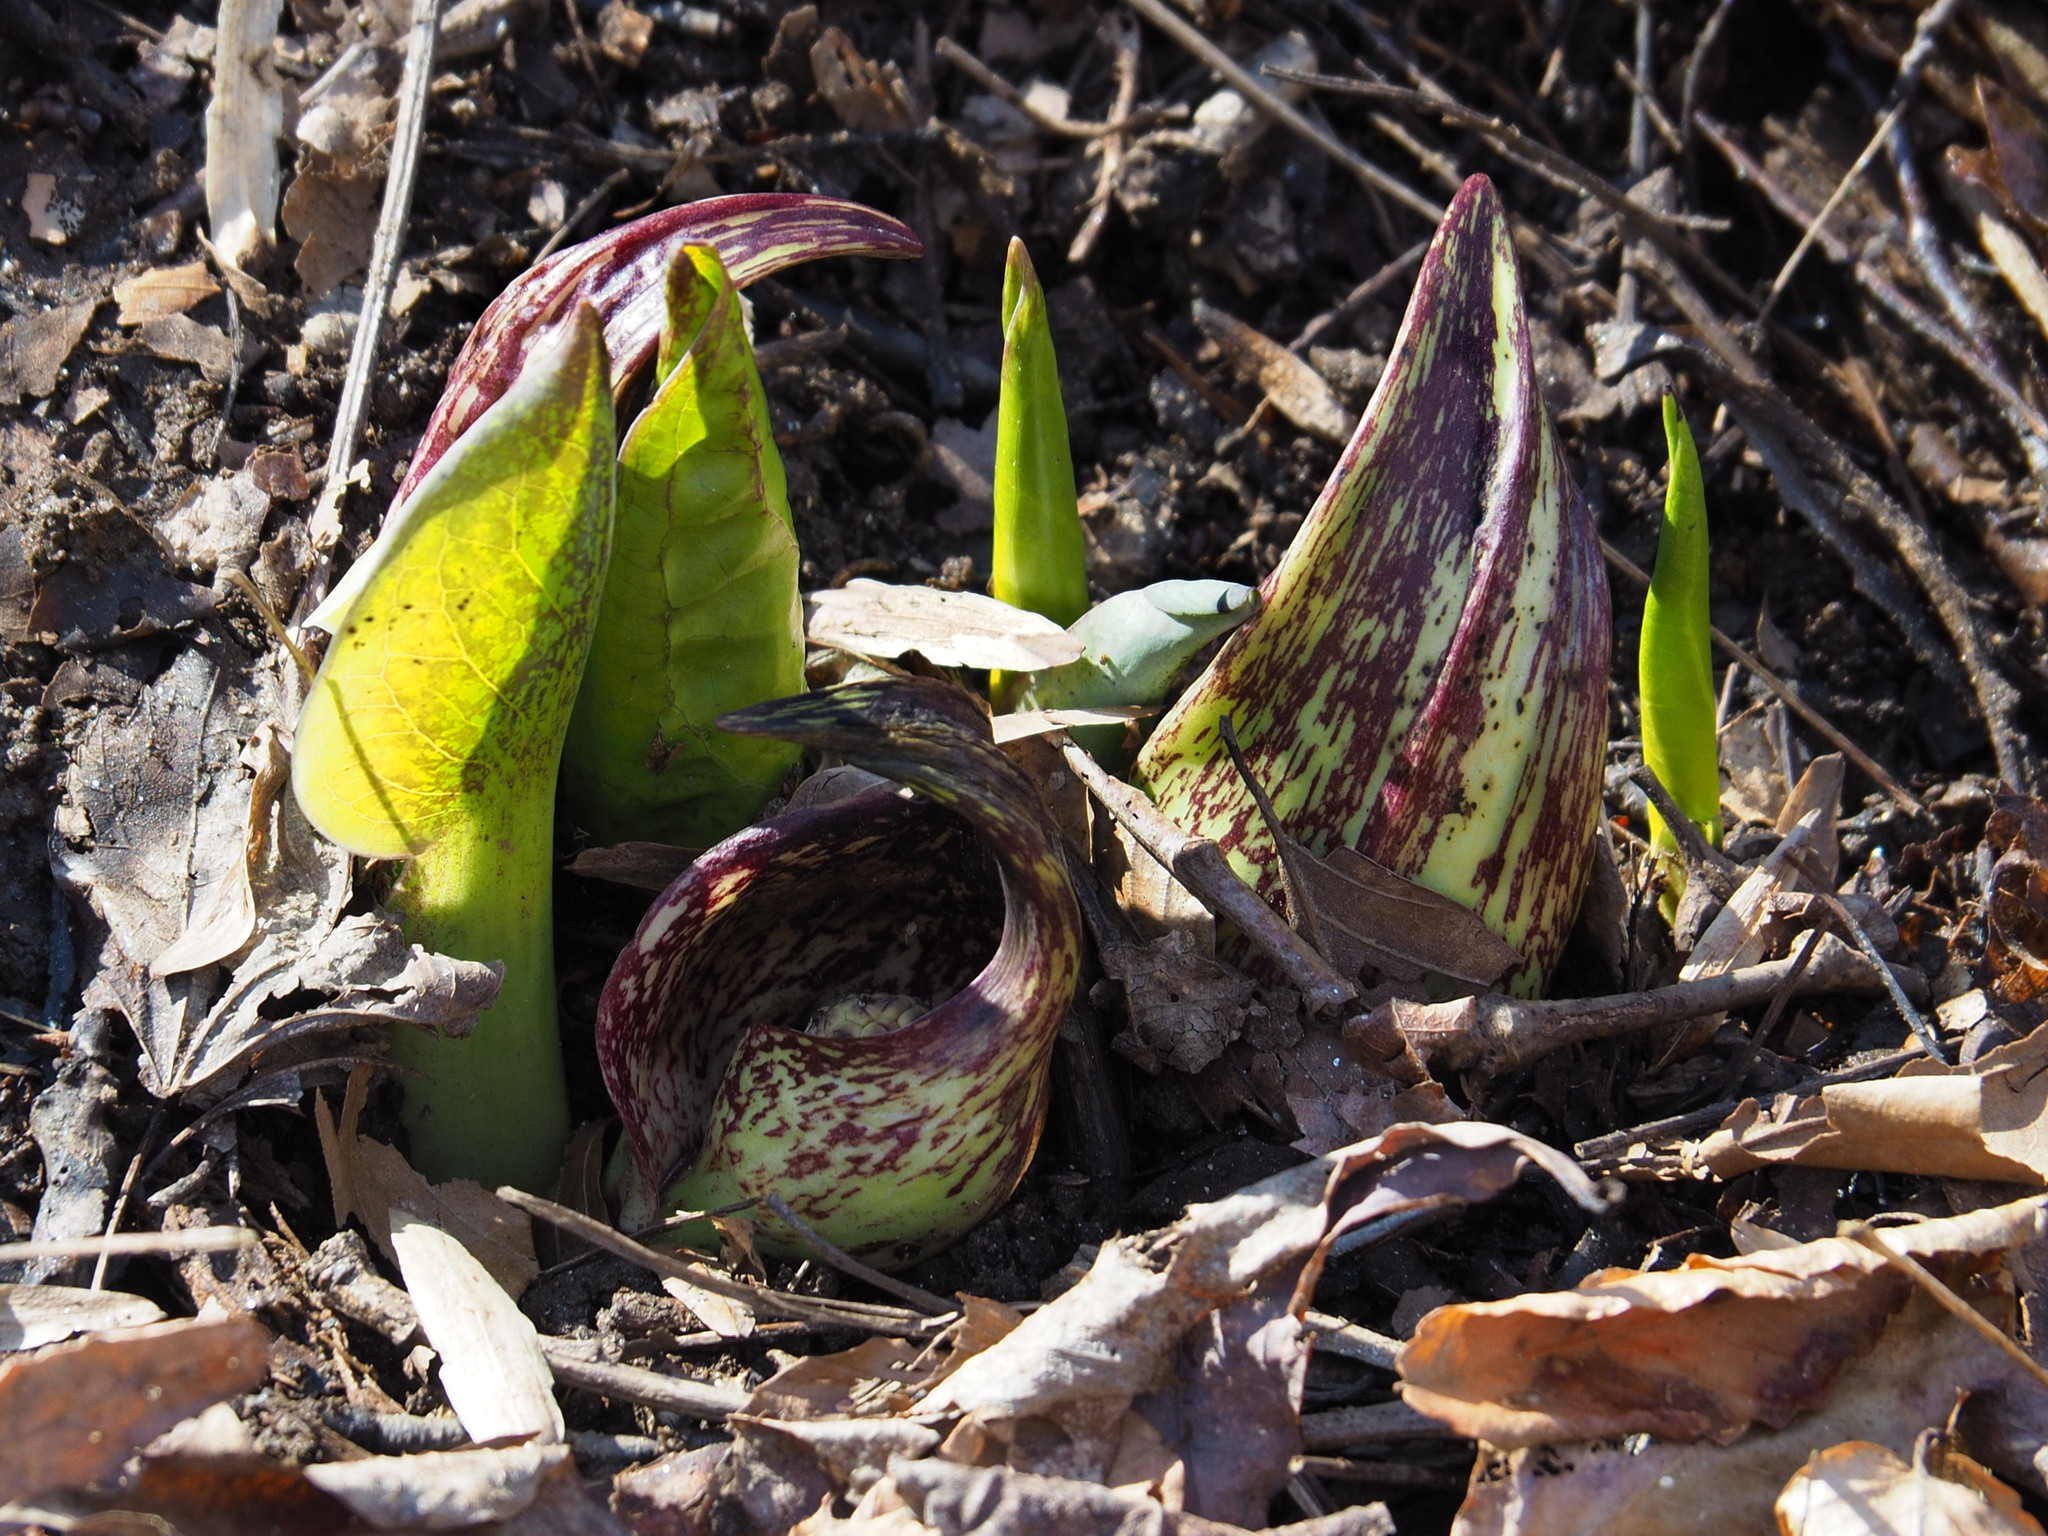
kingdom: Plantae
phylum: Tracheophyta
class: Liliopsida
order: Alismatales
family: Araceae
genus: Symplocarpus
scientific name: Symplocarpus foetidus
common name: Eastern skunk cabbage
